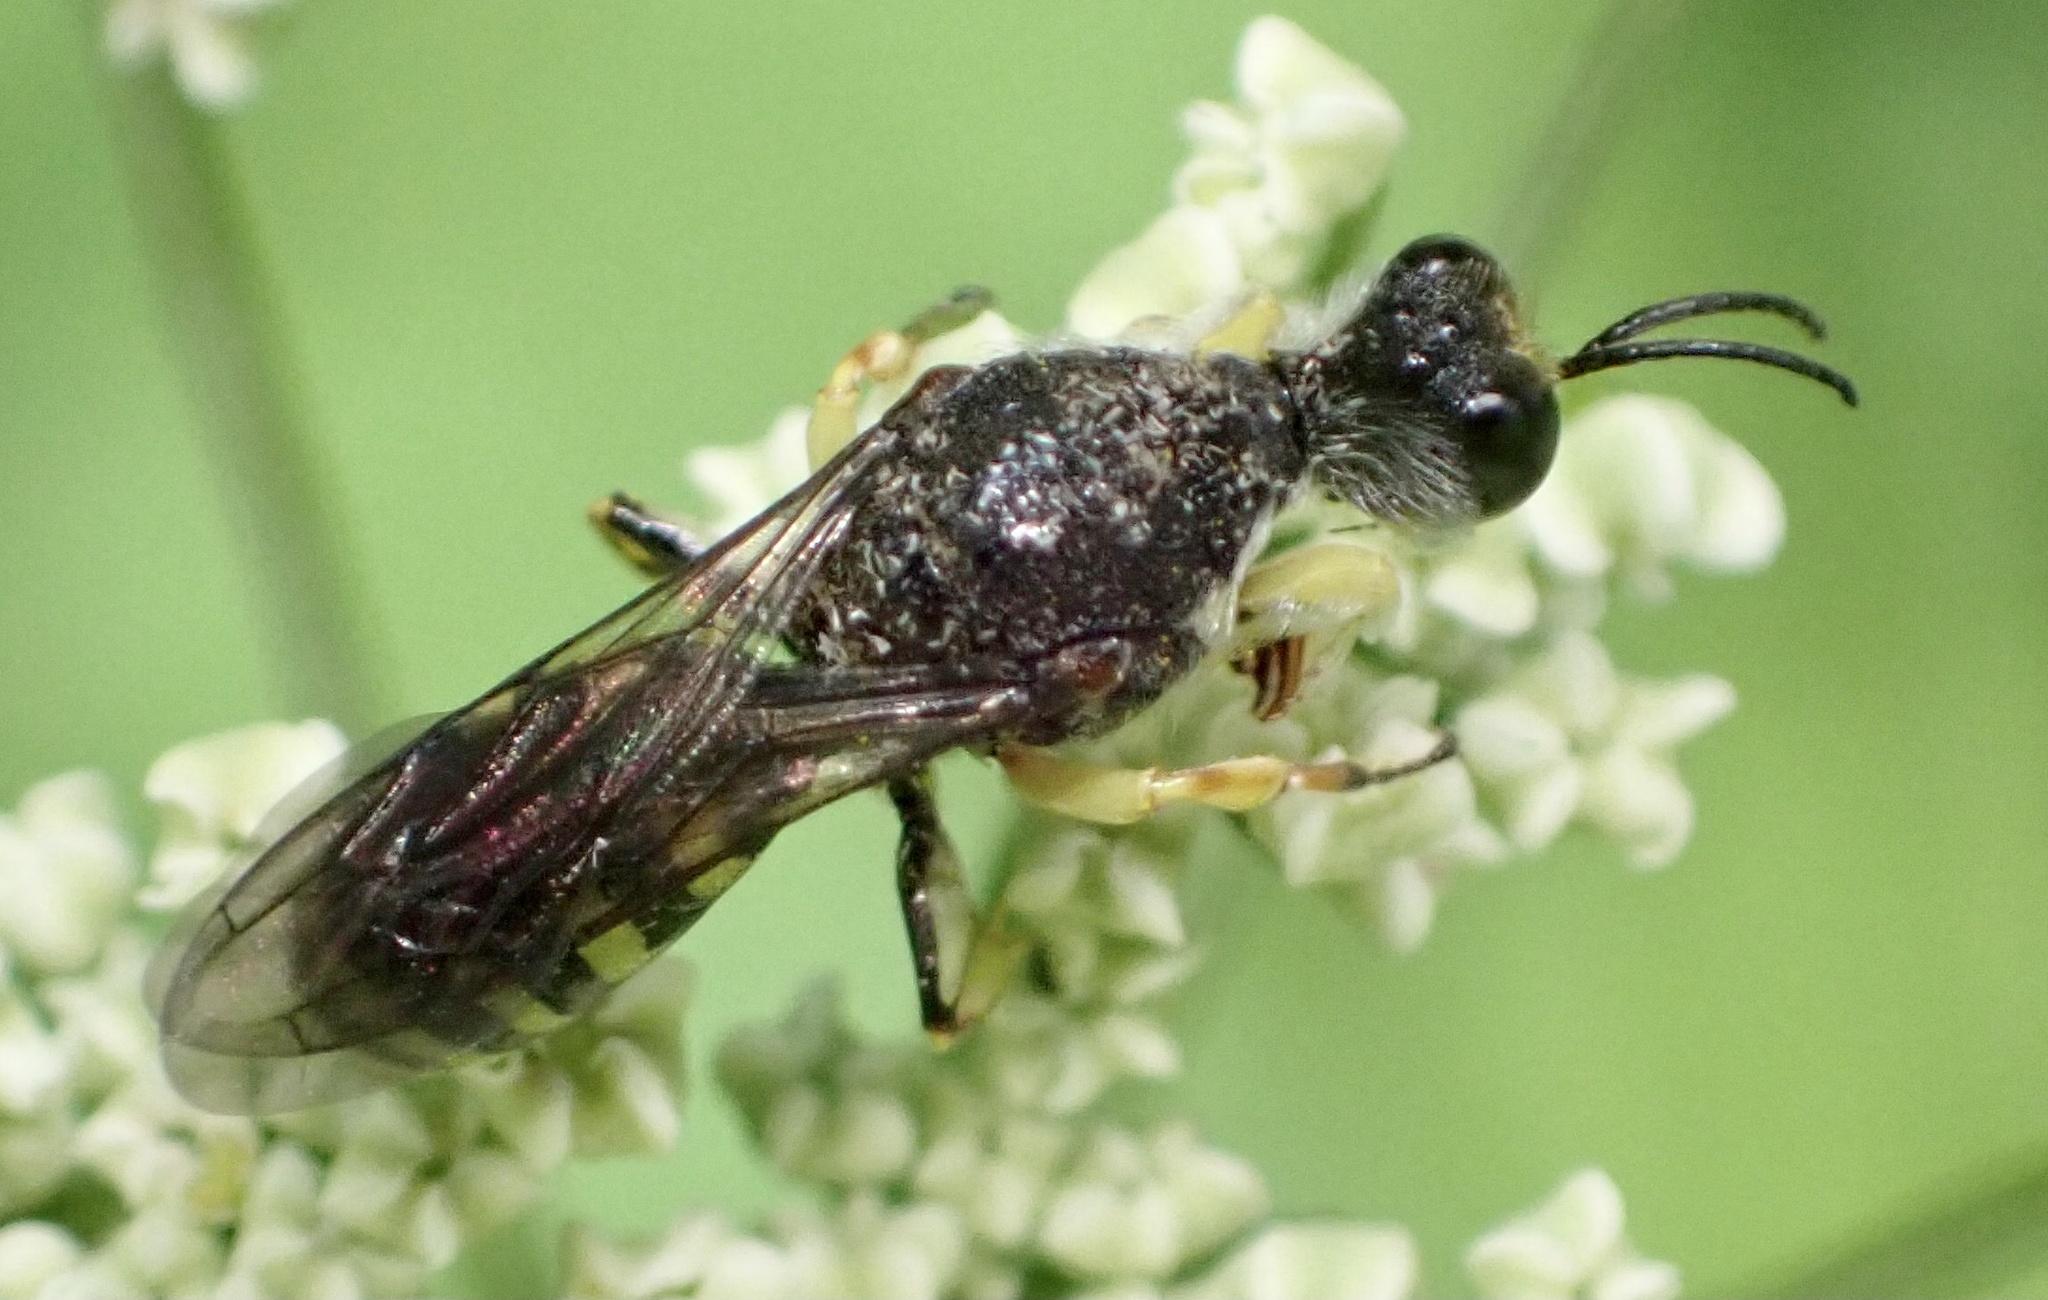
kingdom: Animalia
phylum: Arthropoda
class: Insecta
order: Hymenoptera
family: Crabronidae
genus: Lestica
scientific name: Lestica clypeata
